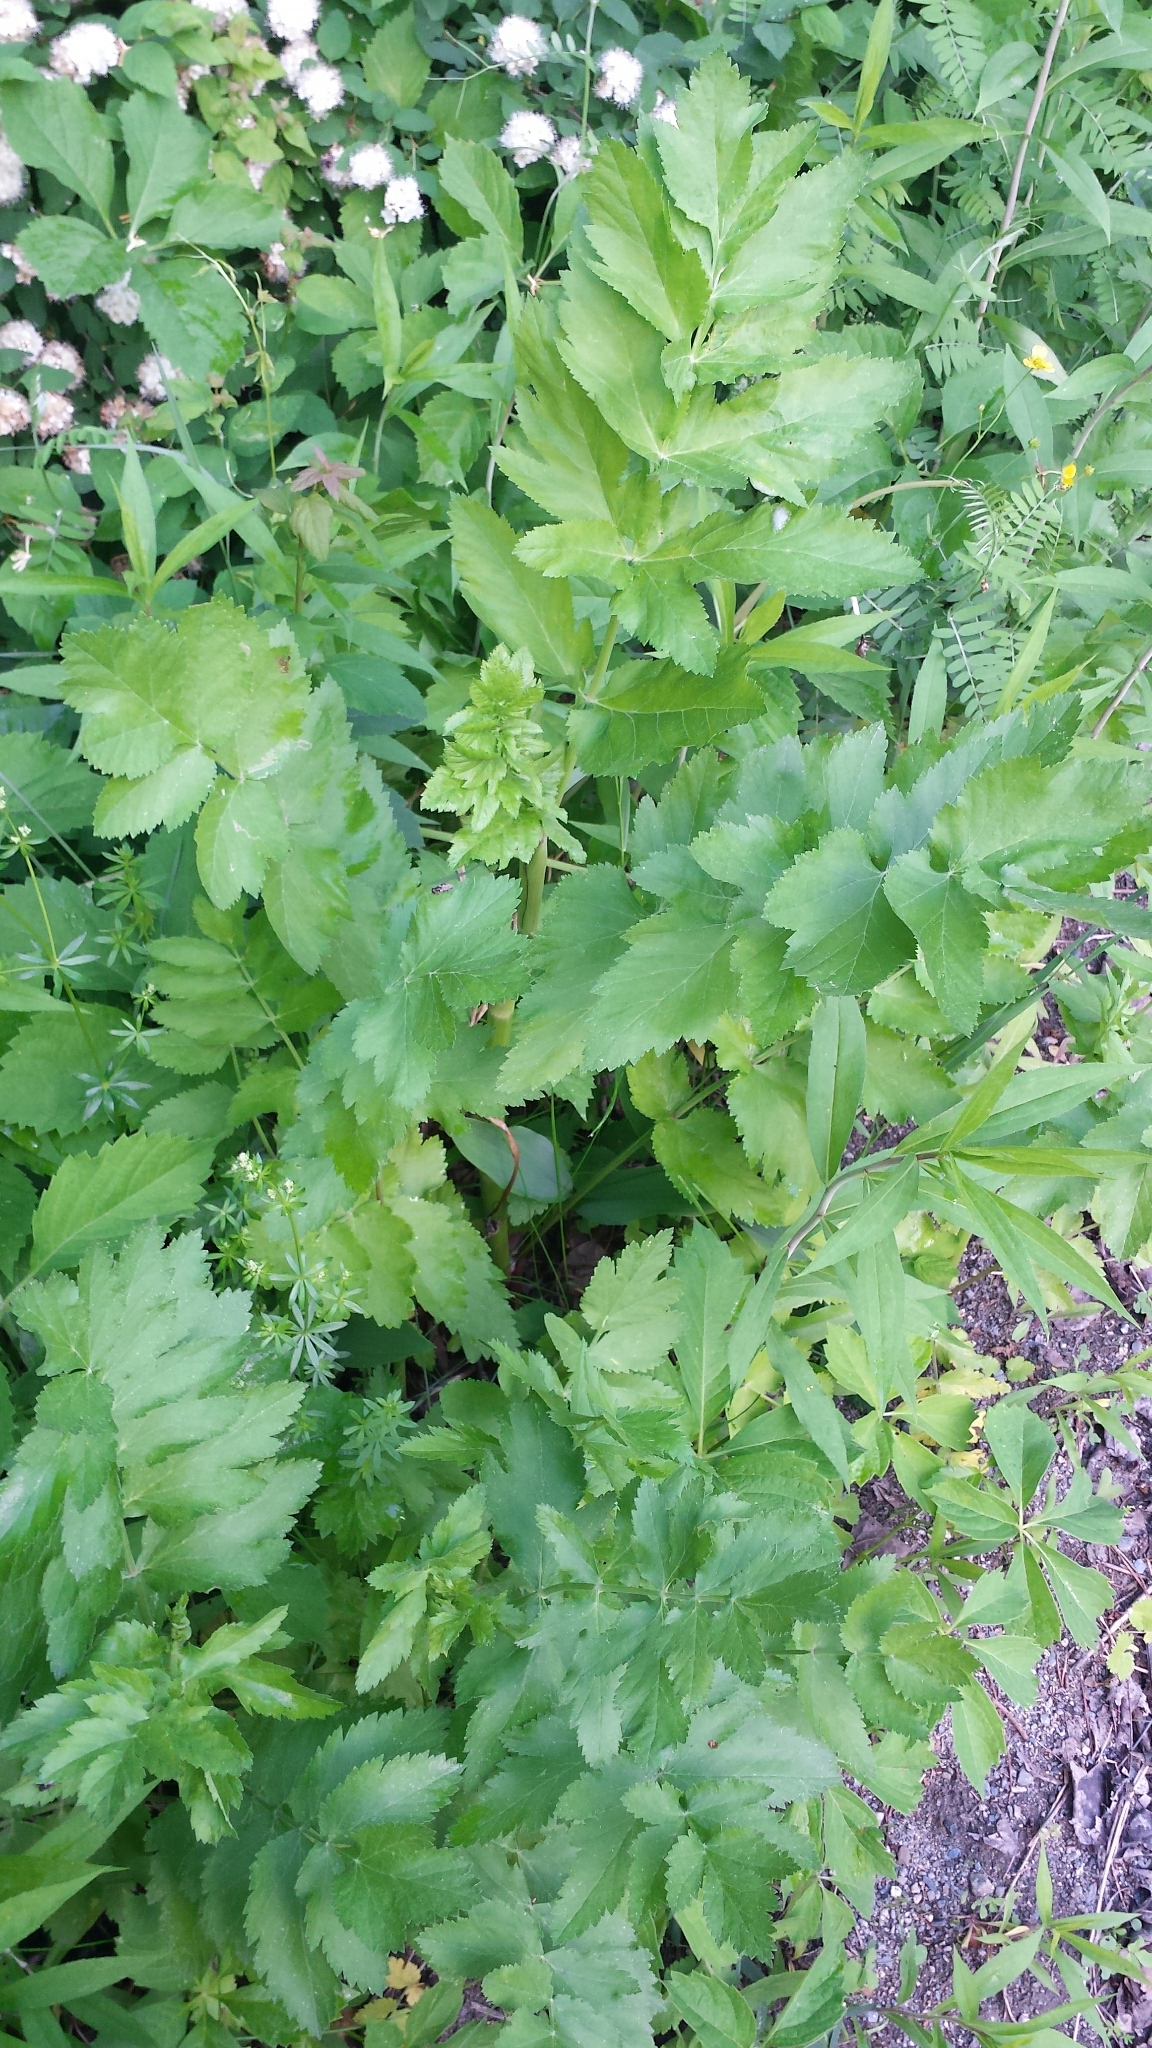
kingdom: Plantae
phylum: Tracheophyta
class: Magnoliopsida
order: Apiales
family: Apiaceae
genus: Pastinaca
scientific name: Pastinaca sativa
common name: Wild parsnip
